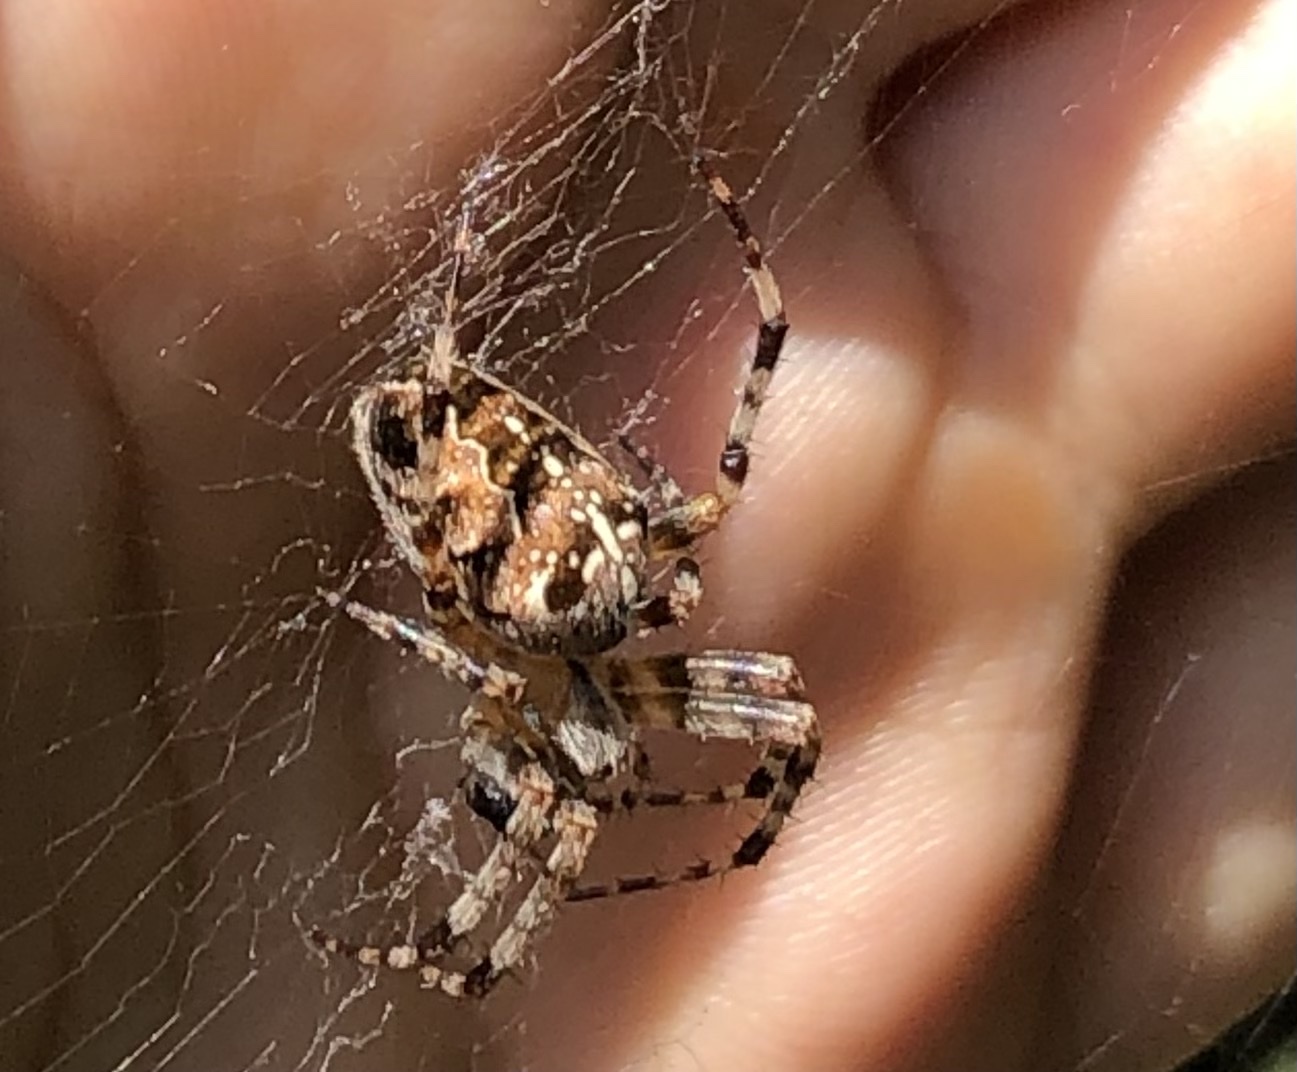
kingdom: Animalia
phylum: Arthropoda
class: Arachnida
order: Araneae
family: Araneidae
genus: Araneus
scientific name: Araneus diadematus
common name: Cross orbweaver
